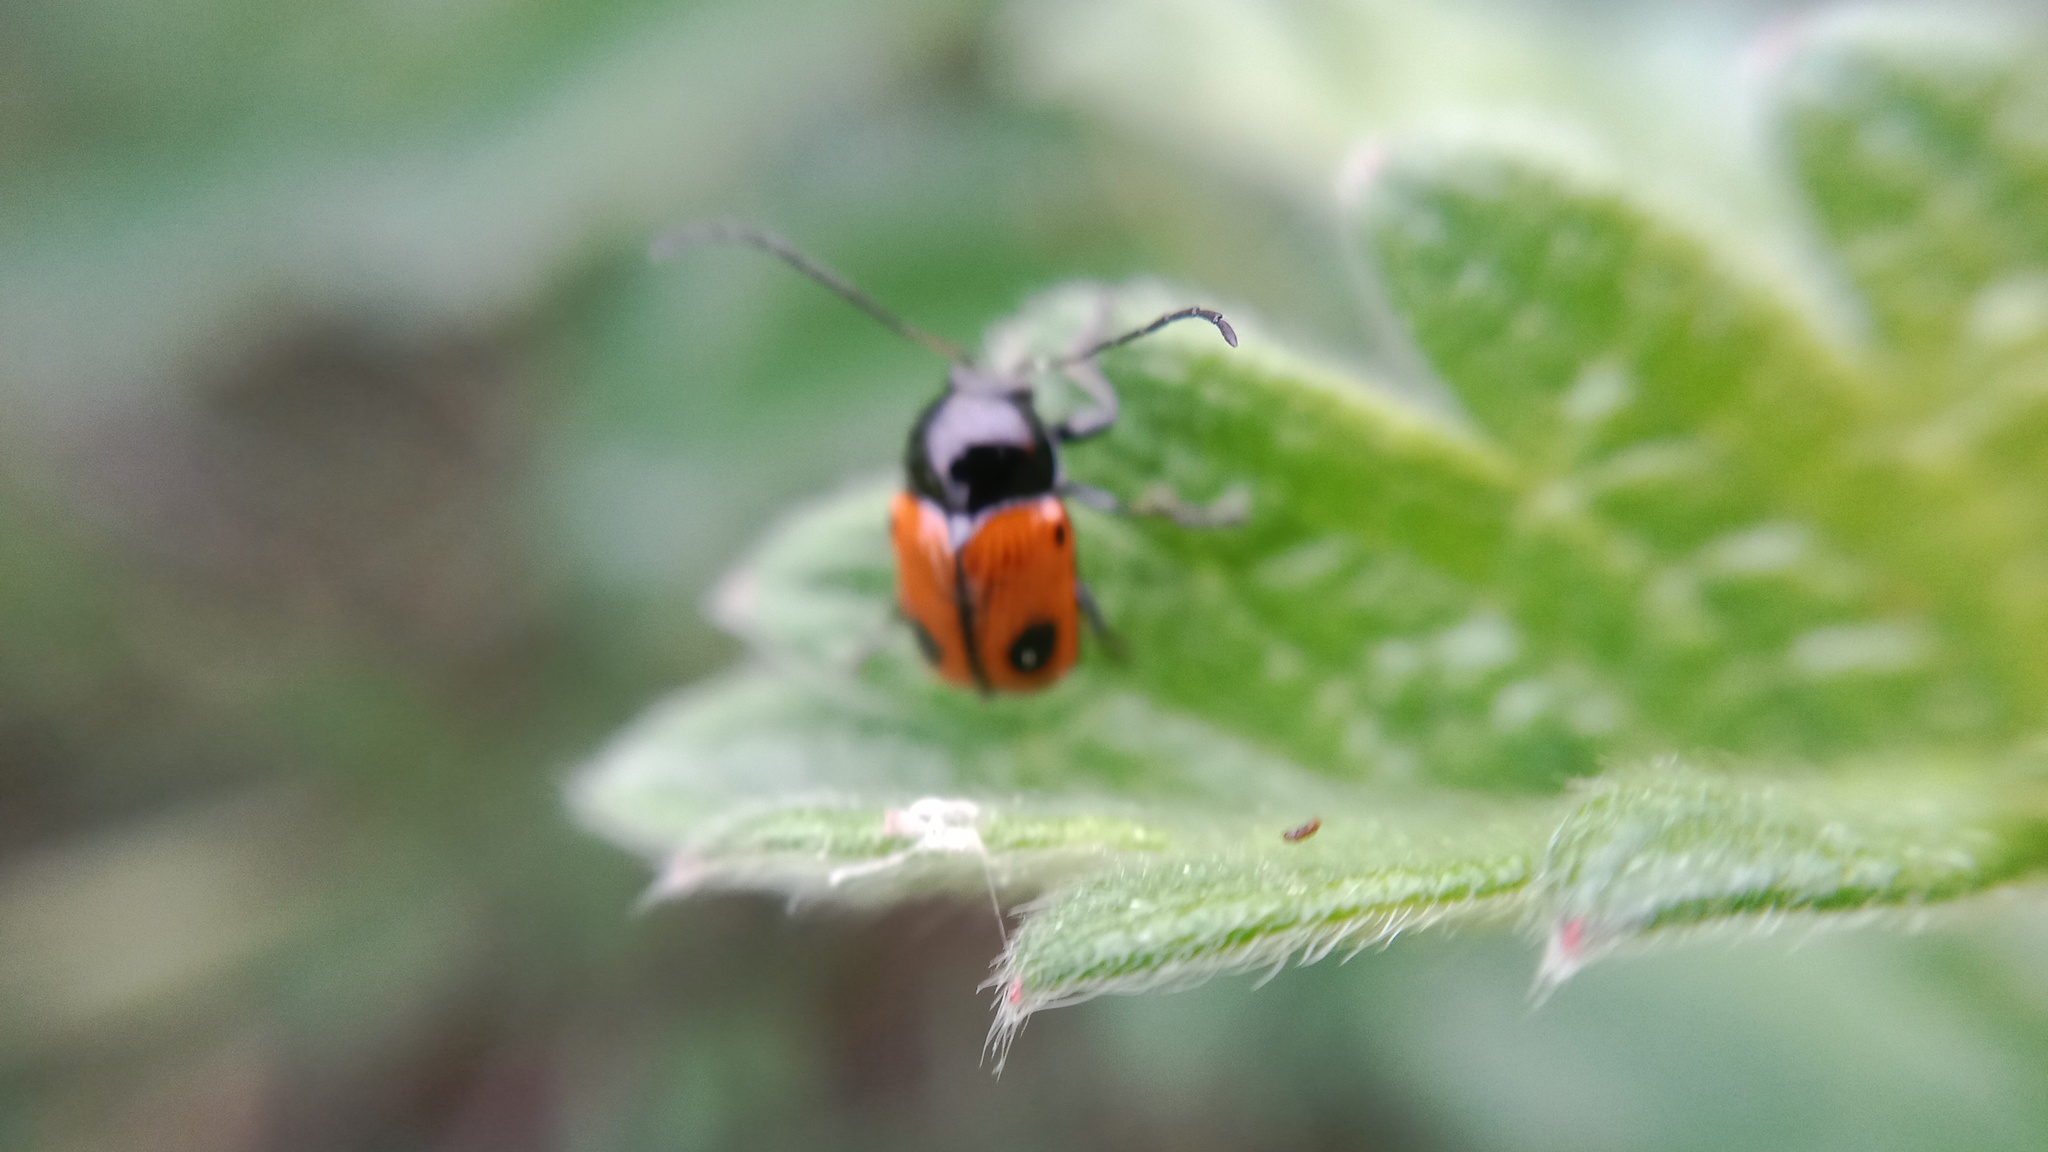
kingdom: Animalia
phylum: Arthropoda
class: Insecta
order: Coleoptera
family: Chrysomelidae
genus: Chiridopsis
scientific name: Chiridopsis bipunctata
